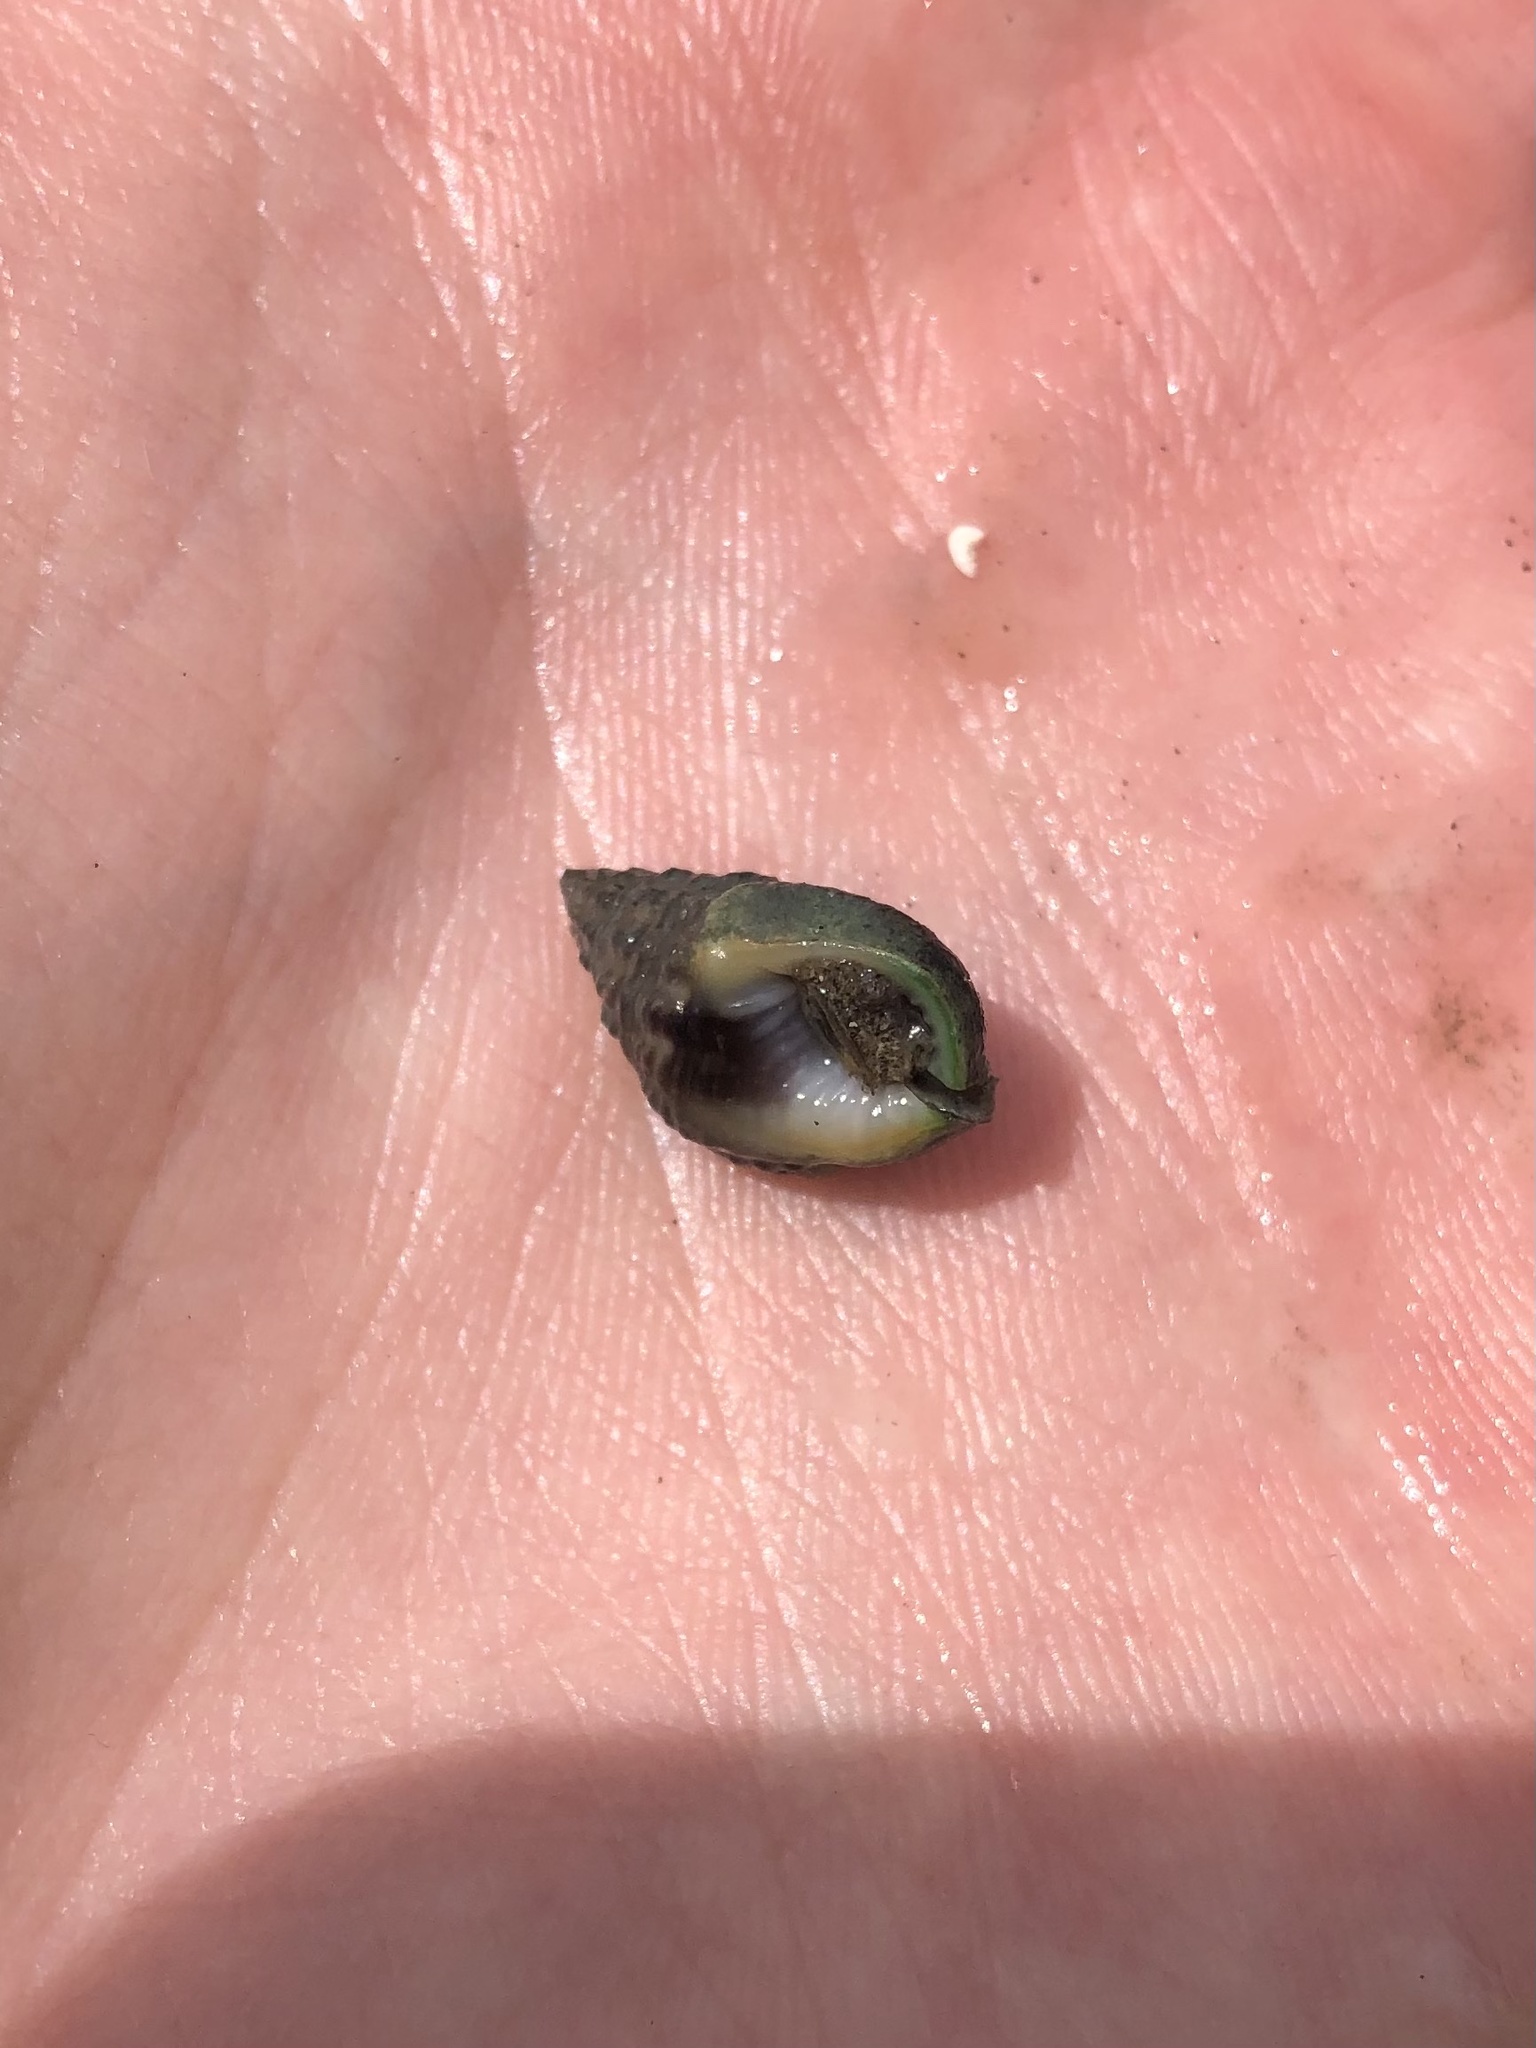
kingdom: Animalia
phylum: Mollusca
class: Gastropoda
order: Neogastropoda
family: Nassariidae
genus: Phrontis
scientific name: Phrontis vibex
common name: Bruised nassa
